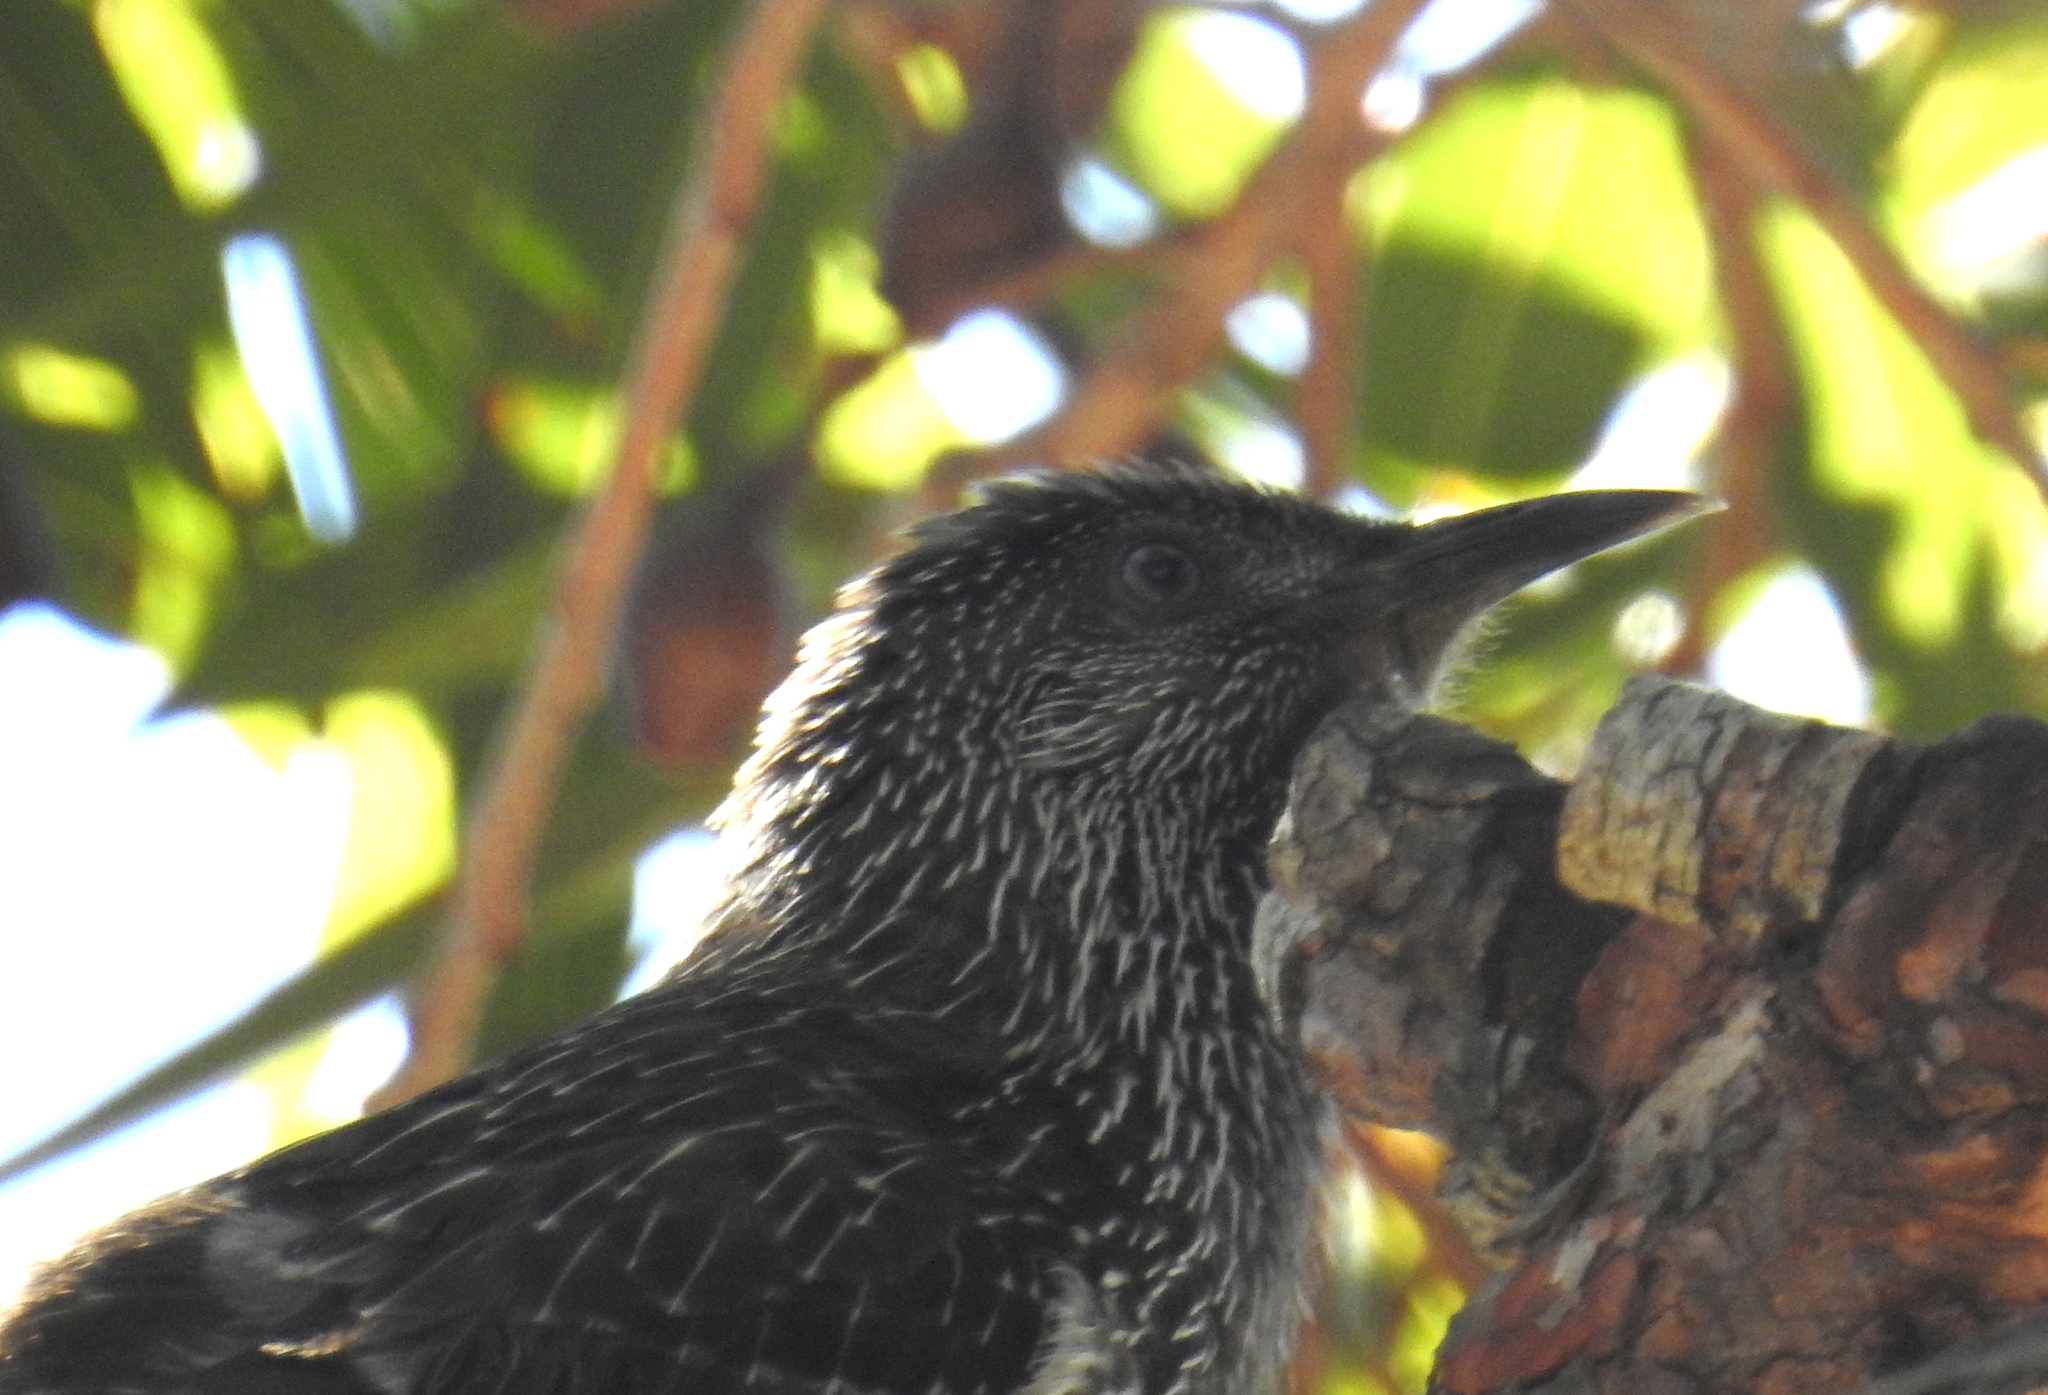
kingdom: Animalia
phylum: Chordata
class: Aves
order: Passeriformes
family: Meliphagidae
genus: Anthochaera
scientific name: Anthochaera chrysoptera
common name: Little wattlebird
